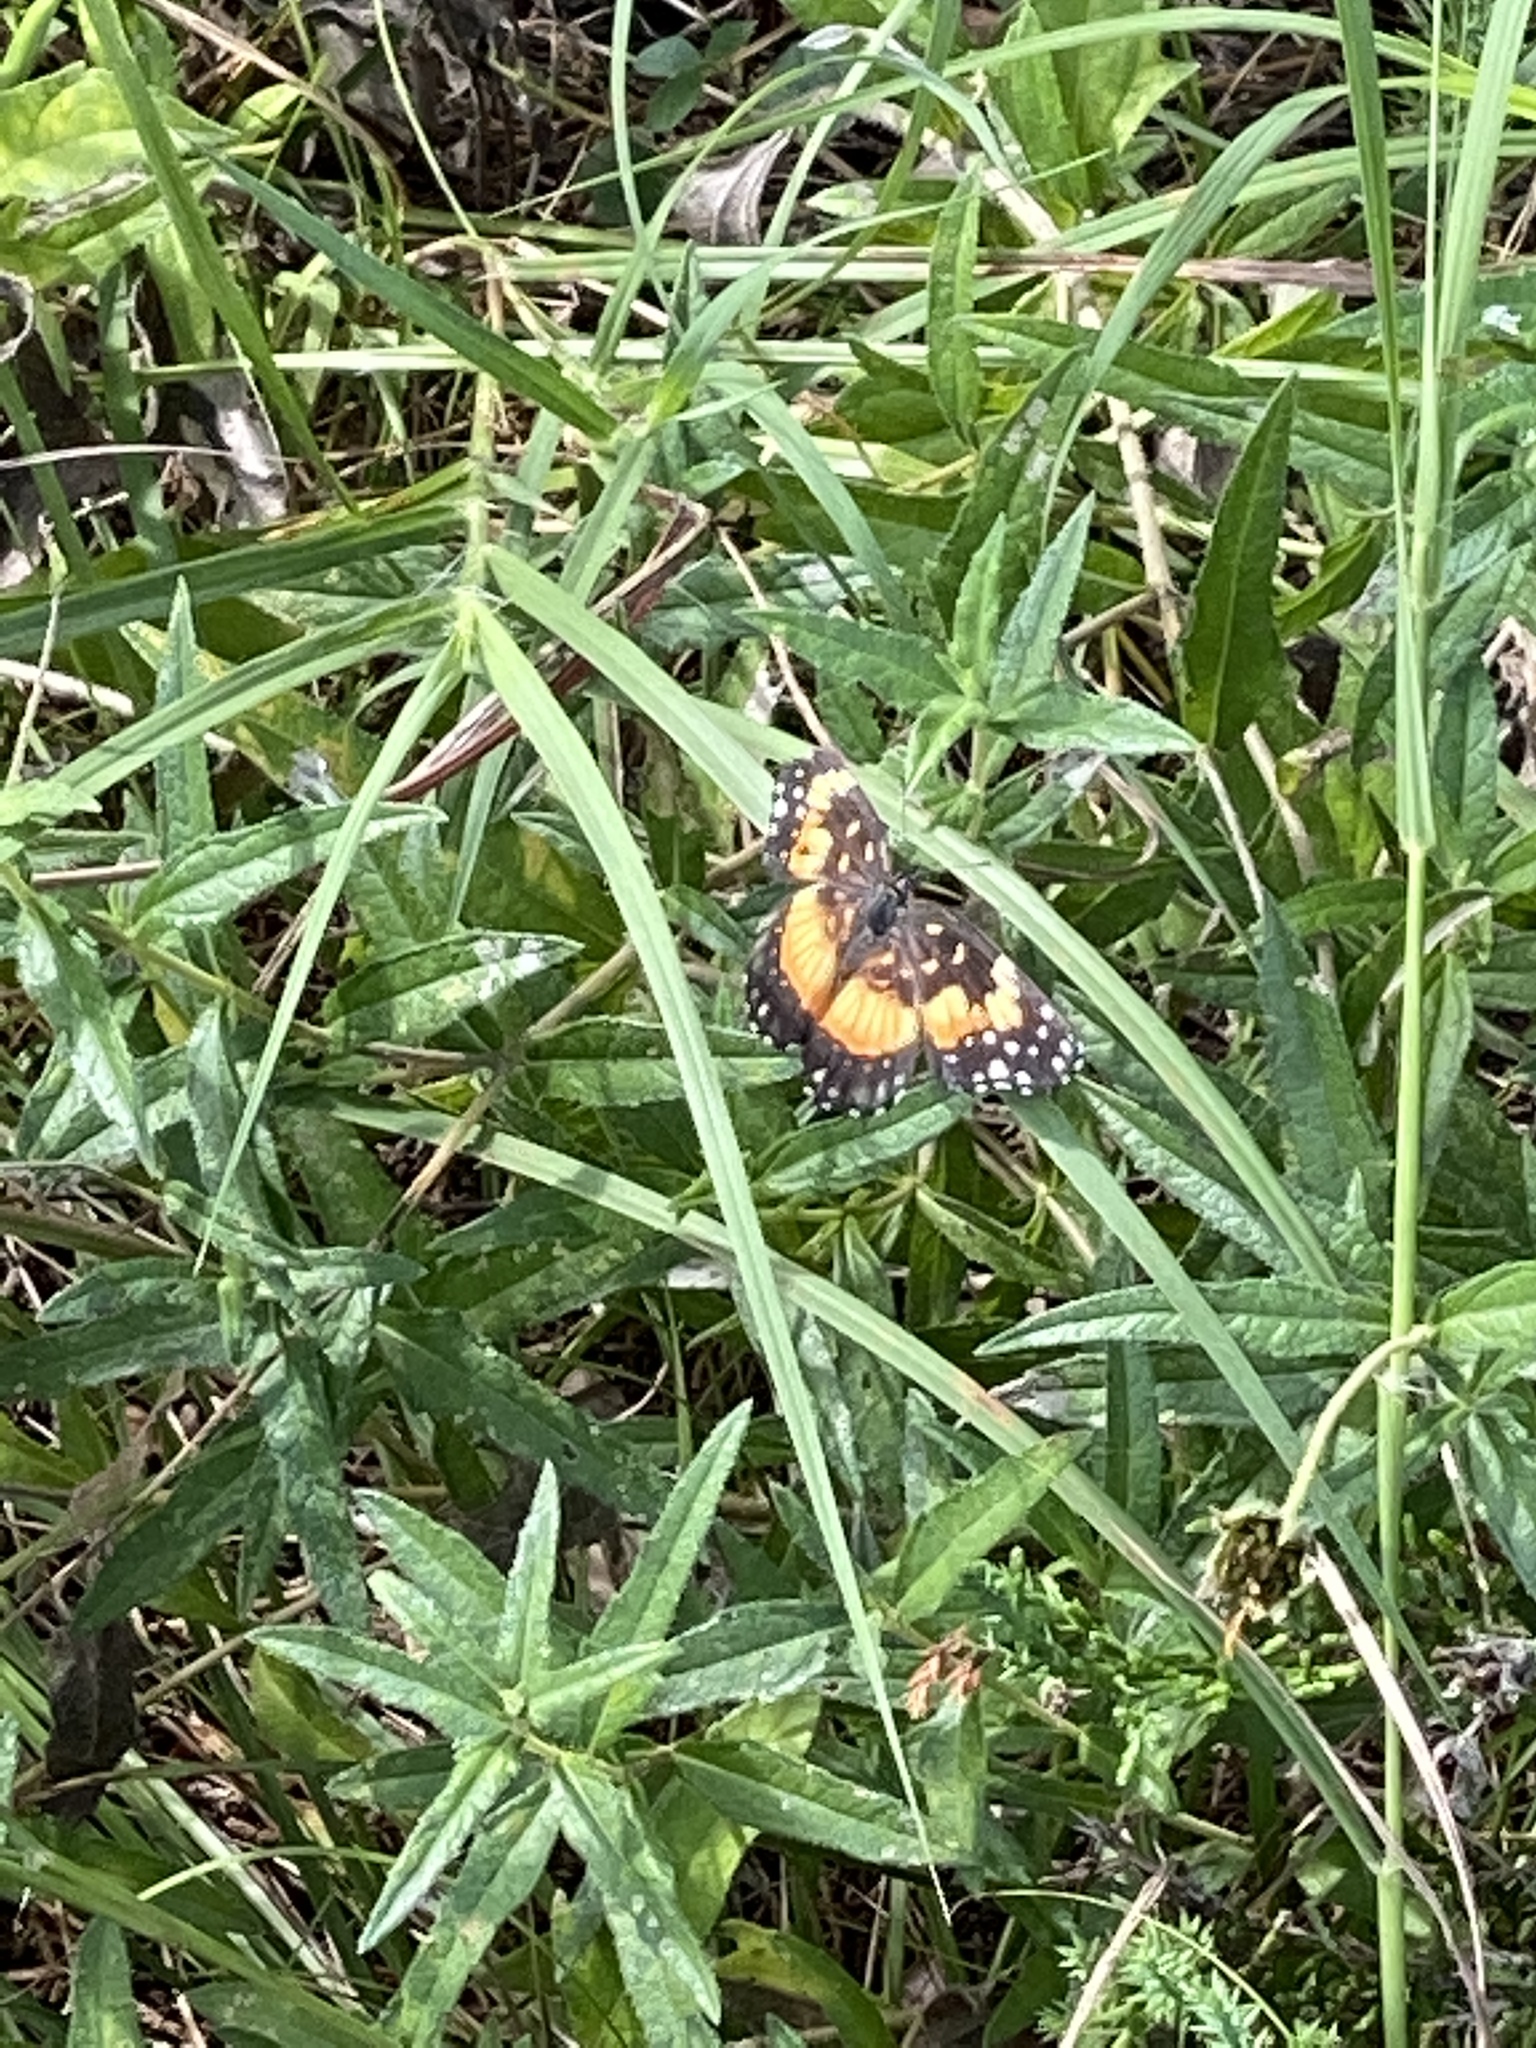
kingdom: Animalia
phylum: Arthropoda
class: Insecta
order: Lepidoptera
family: Nymphalidae
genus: Chlosyne
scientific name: Chlosyne lacinia
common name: Bordered patch
